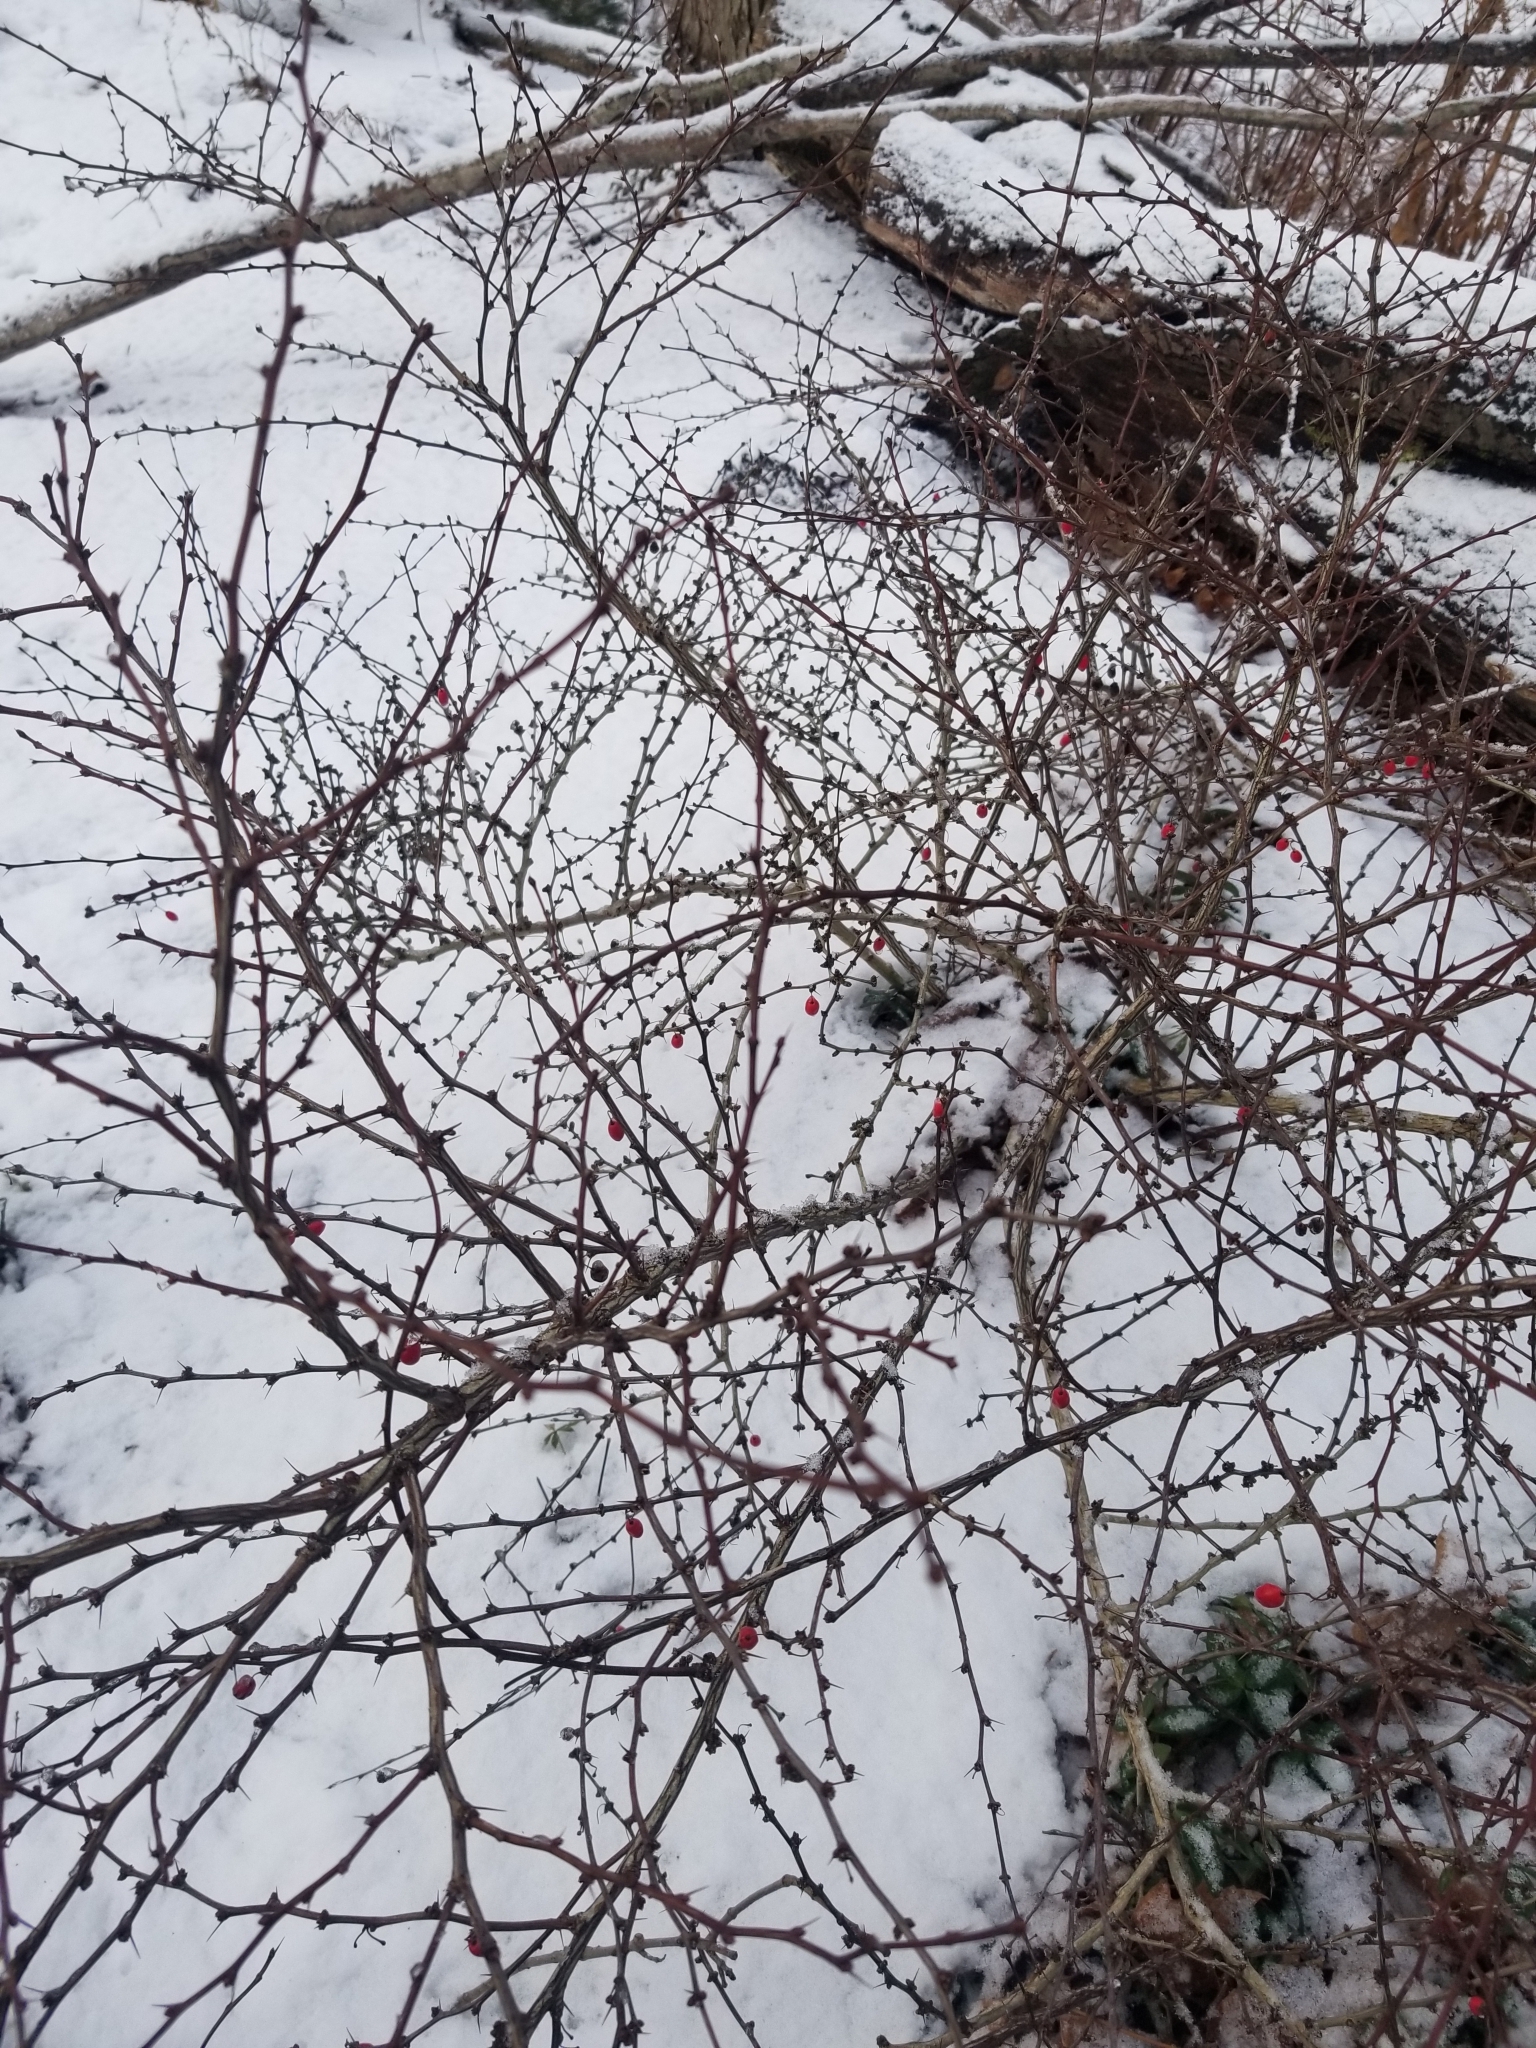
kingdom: Plantae
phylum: Tracheophyta
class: Magnoliopsida
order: Ranunculales
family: Berberidaceae
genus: Berberis
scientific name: Berberis thunbergii
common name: Japanese barberry
